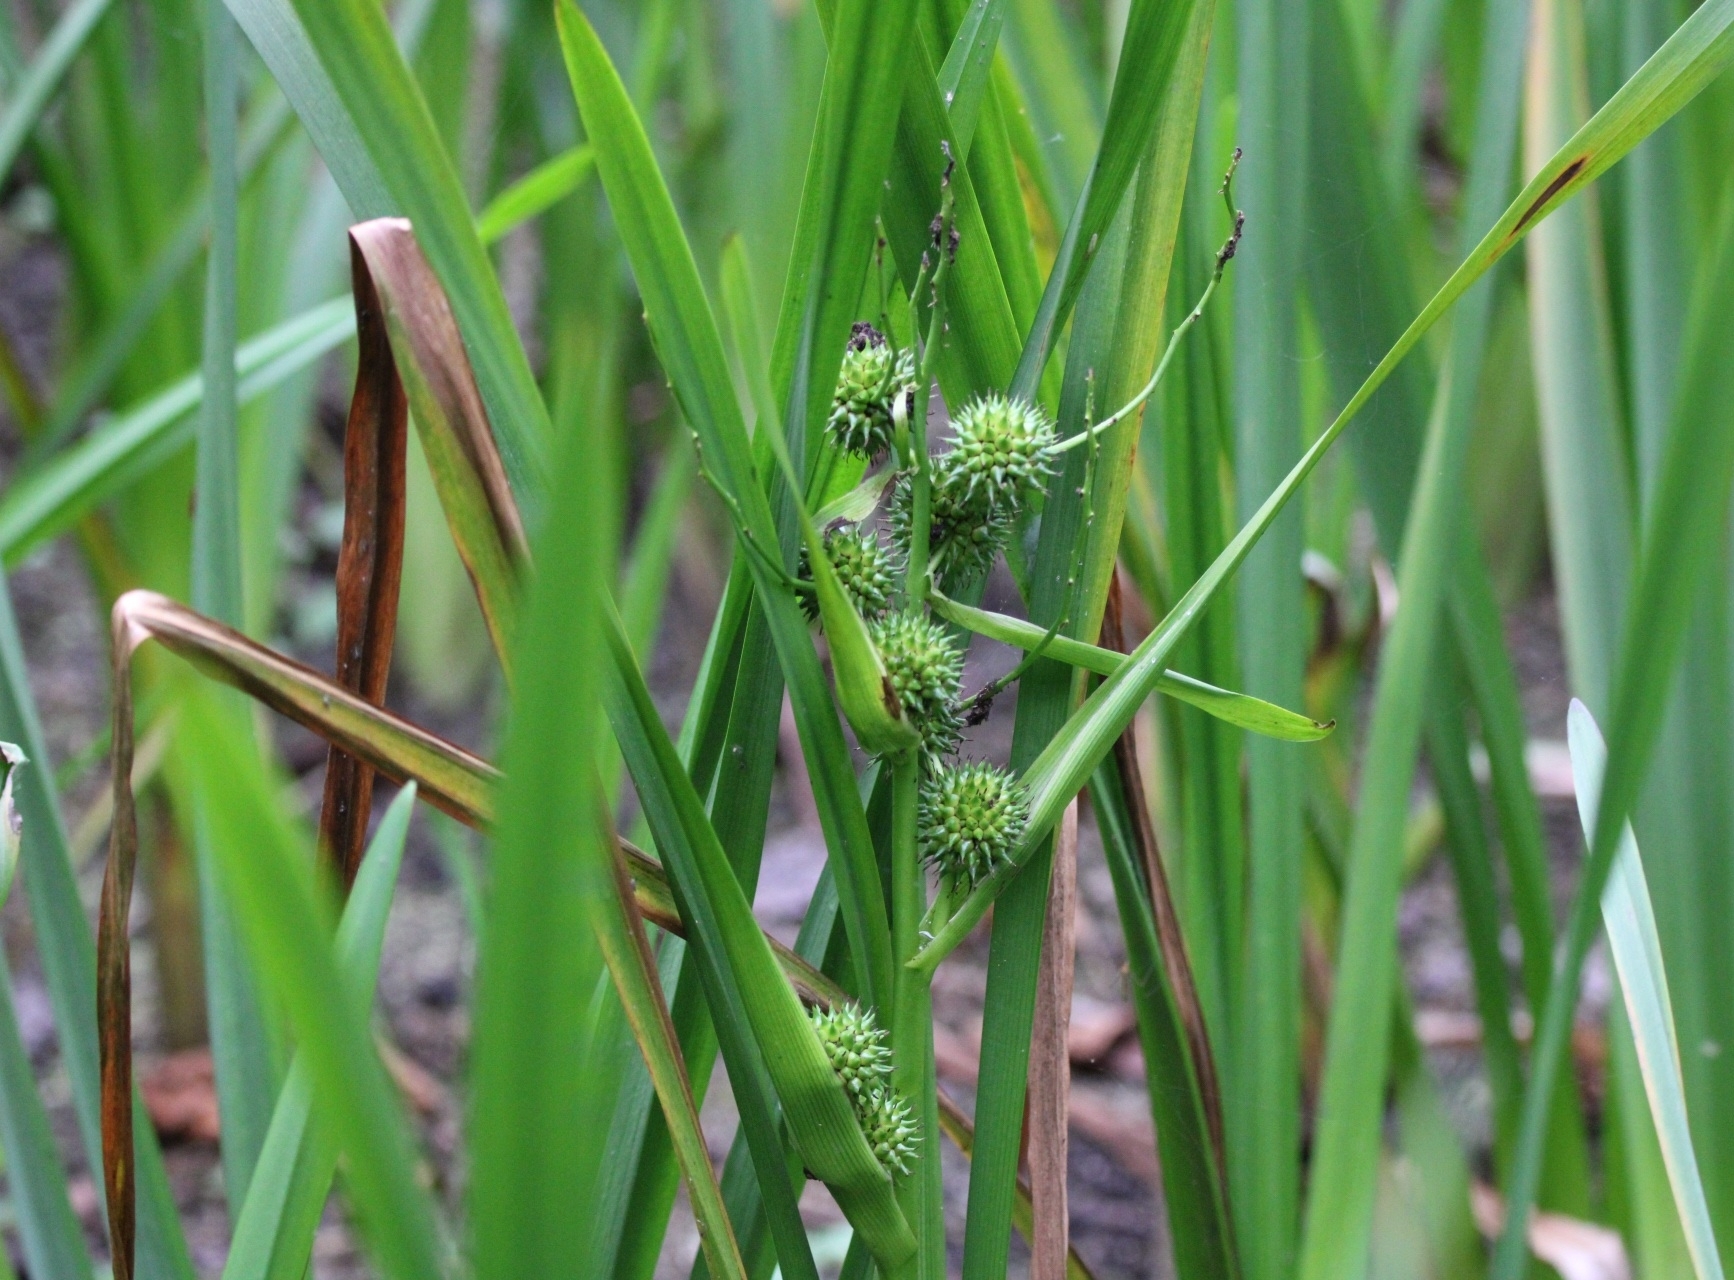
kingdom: Plantae
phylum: Tracheophyta
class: Liliopsida
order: Poales
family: Typhaceae
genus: Sparganium
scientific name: Sparganium erectum
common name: Branched bur-reed
